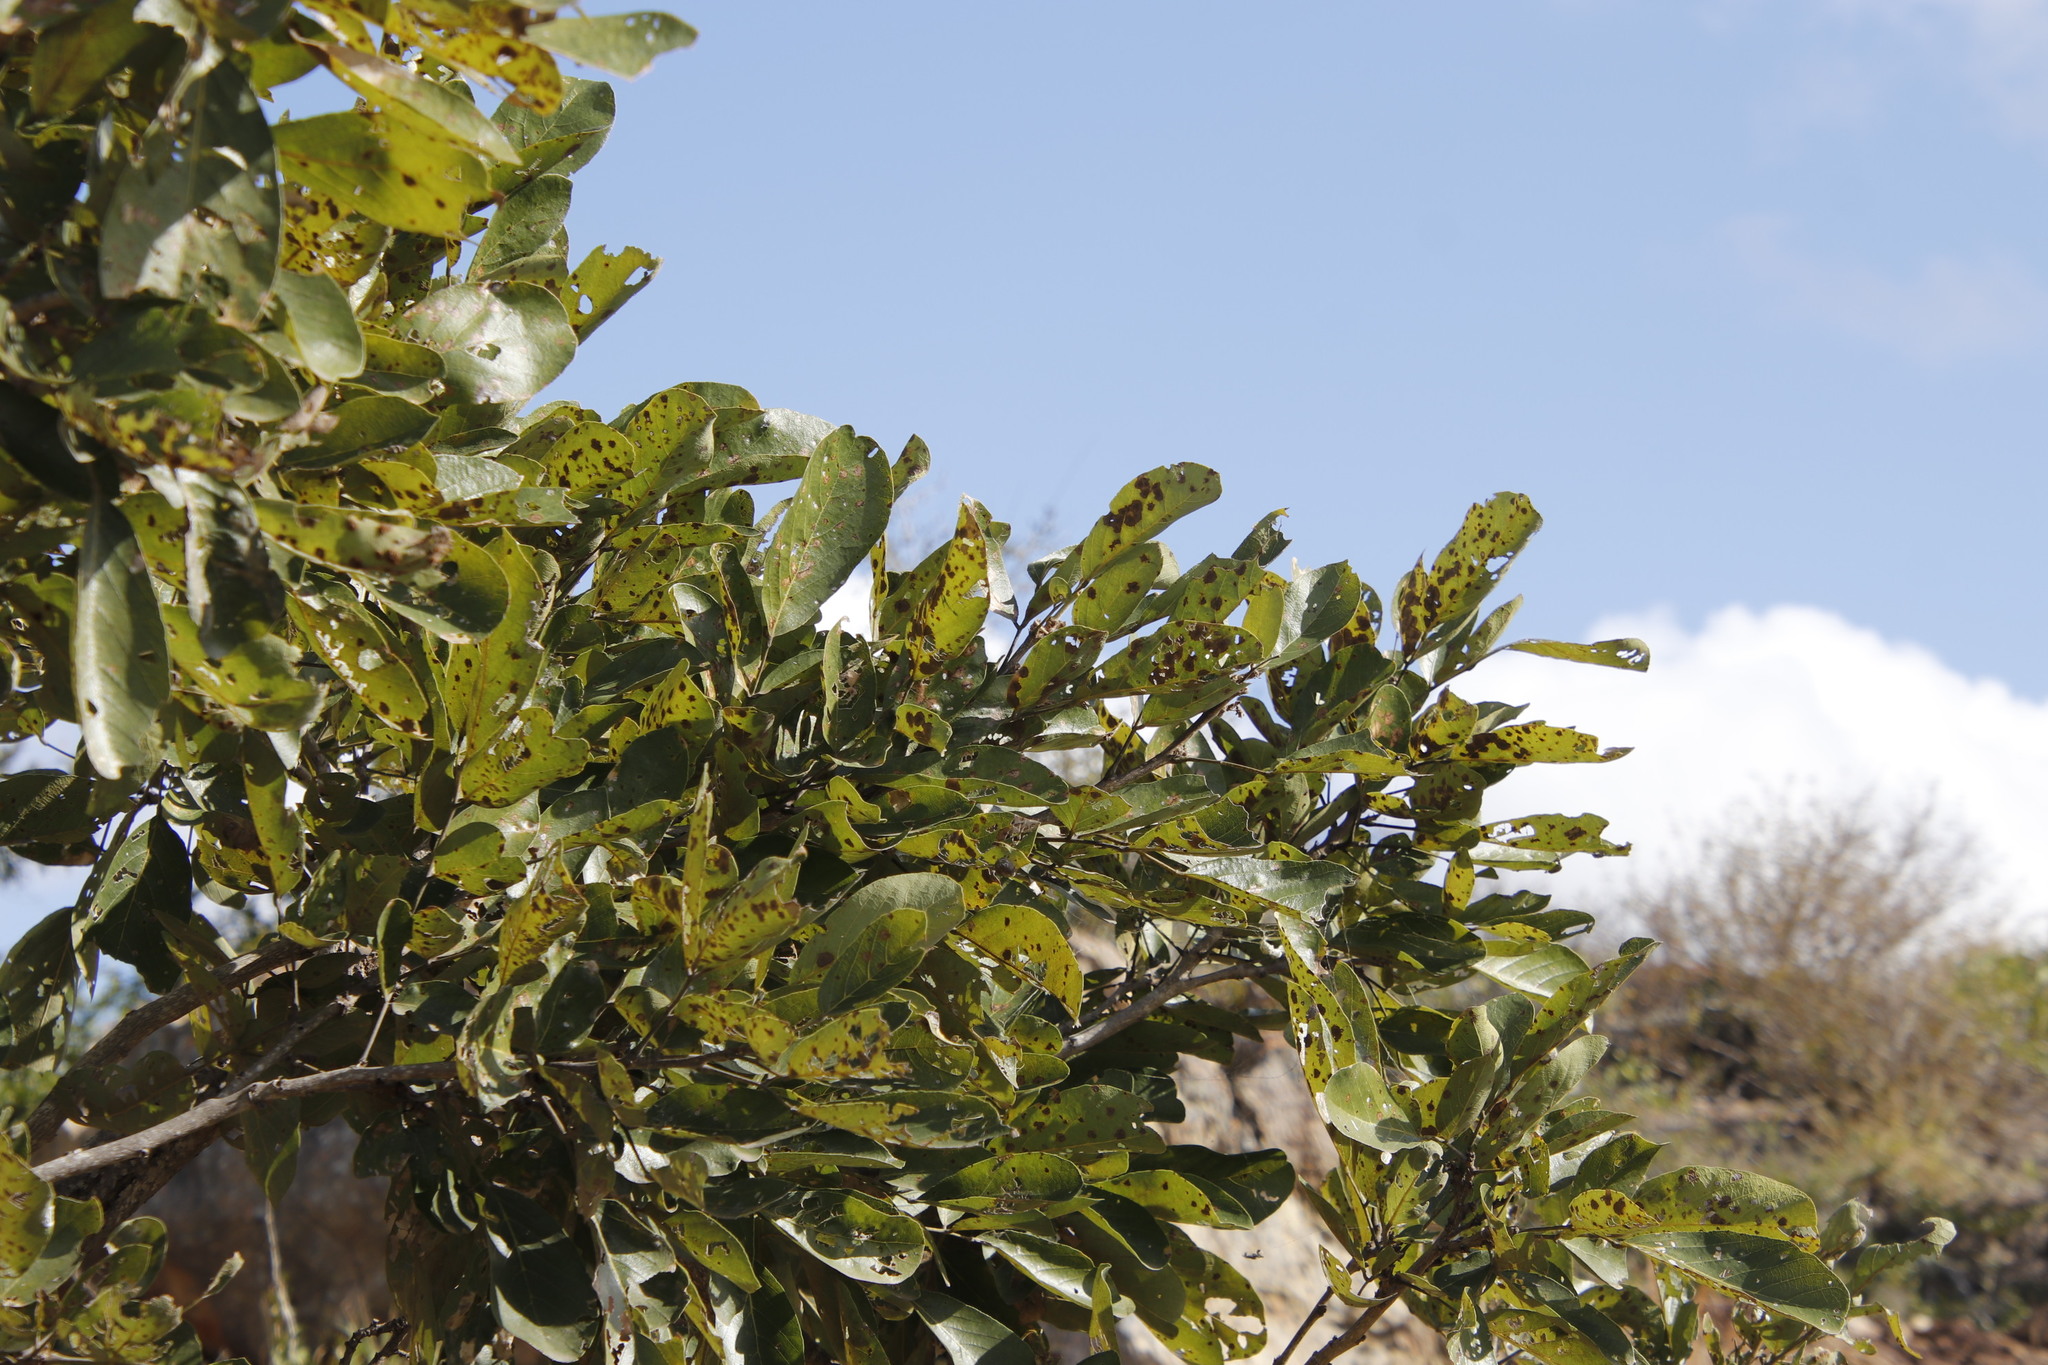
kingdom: Plantae
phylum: Tracheophyta
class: Magnoliopsida
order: Fabales
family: Fabaceae
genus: Philenoptera
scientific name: Philenoptera violacea
